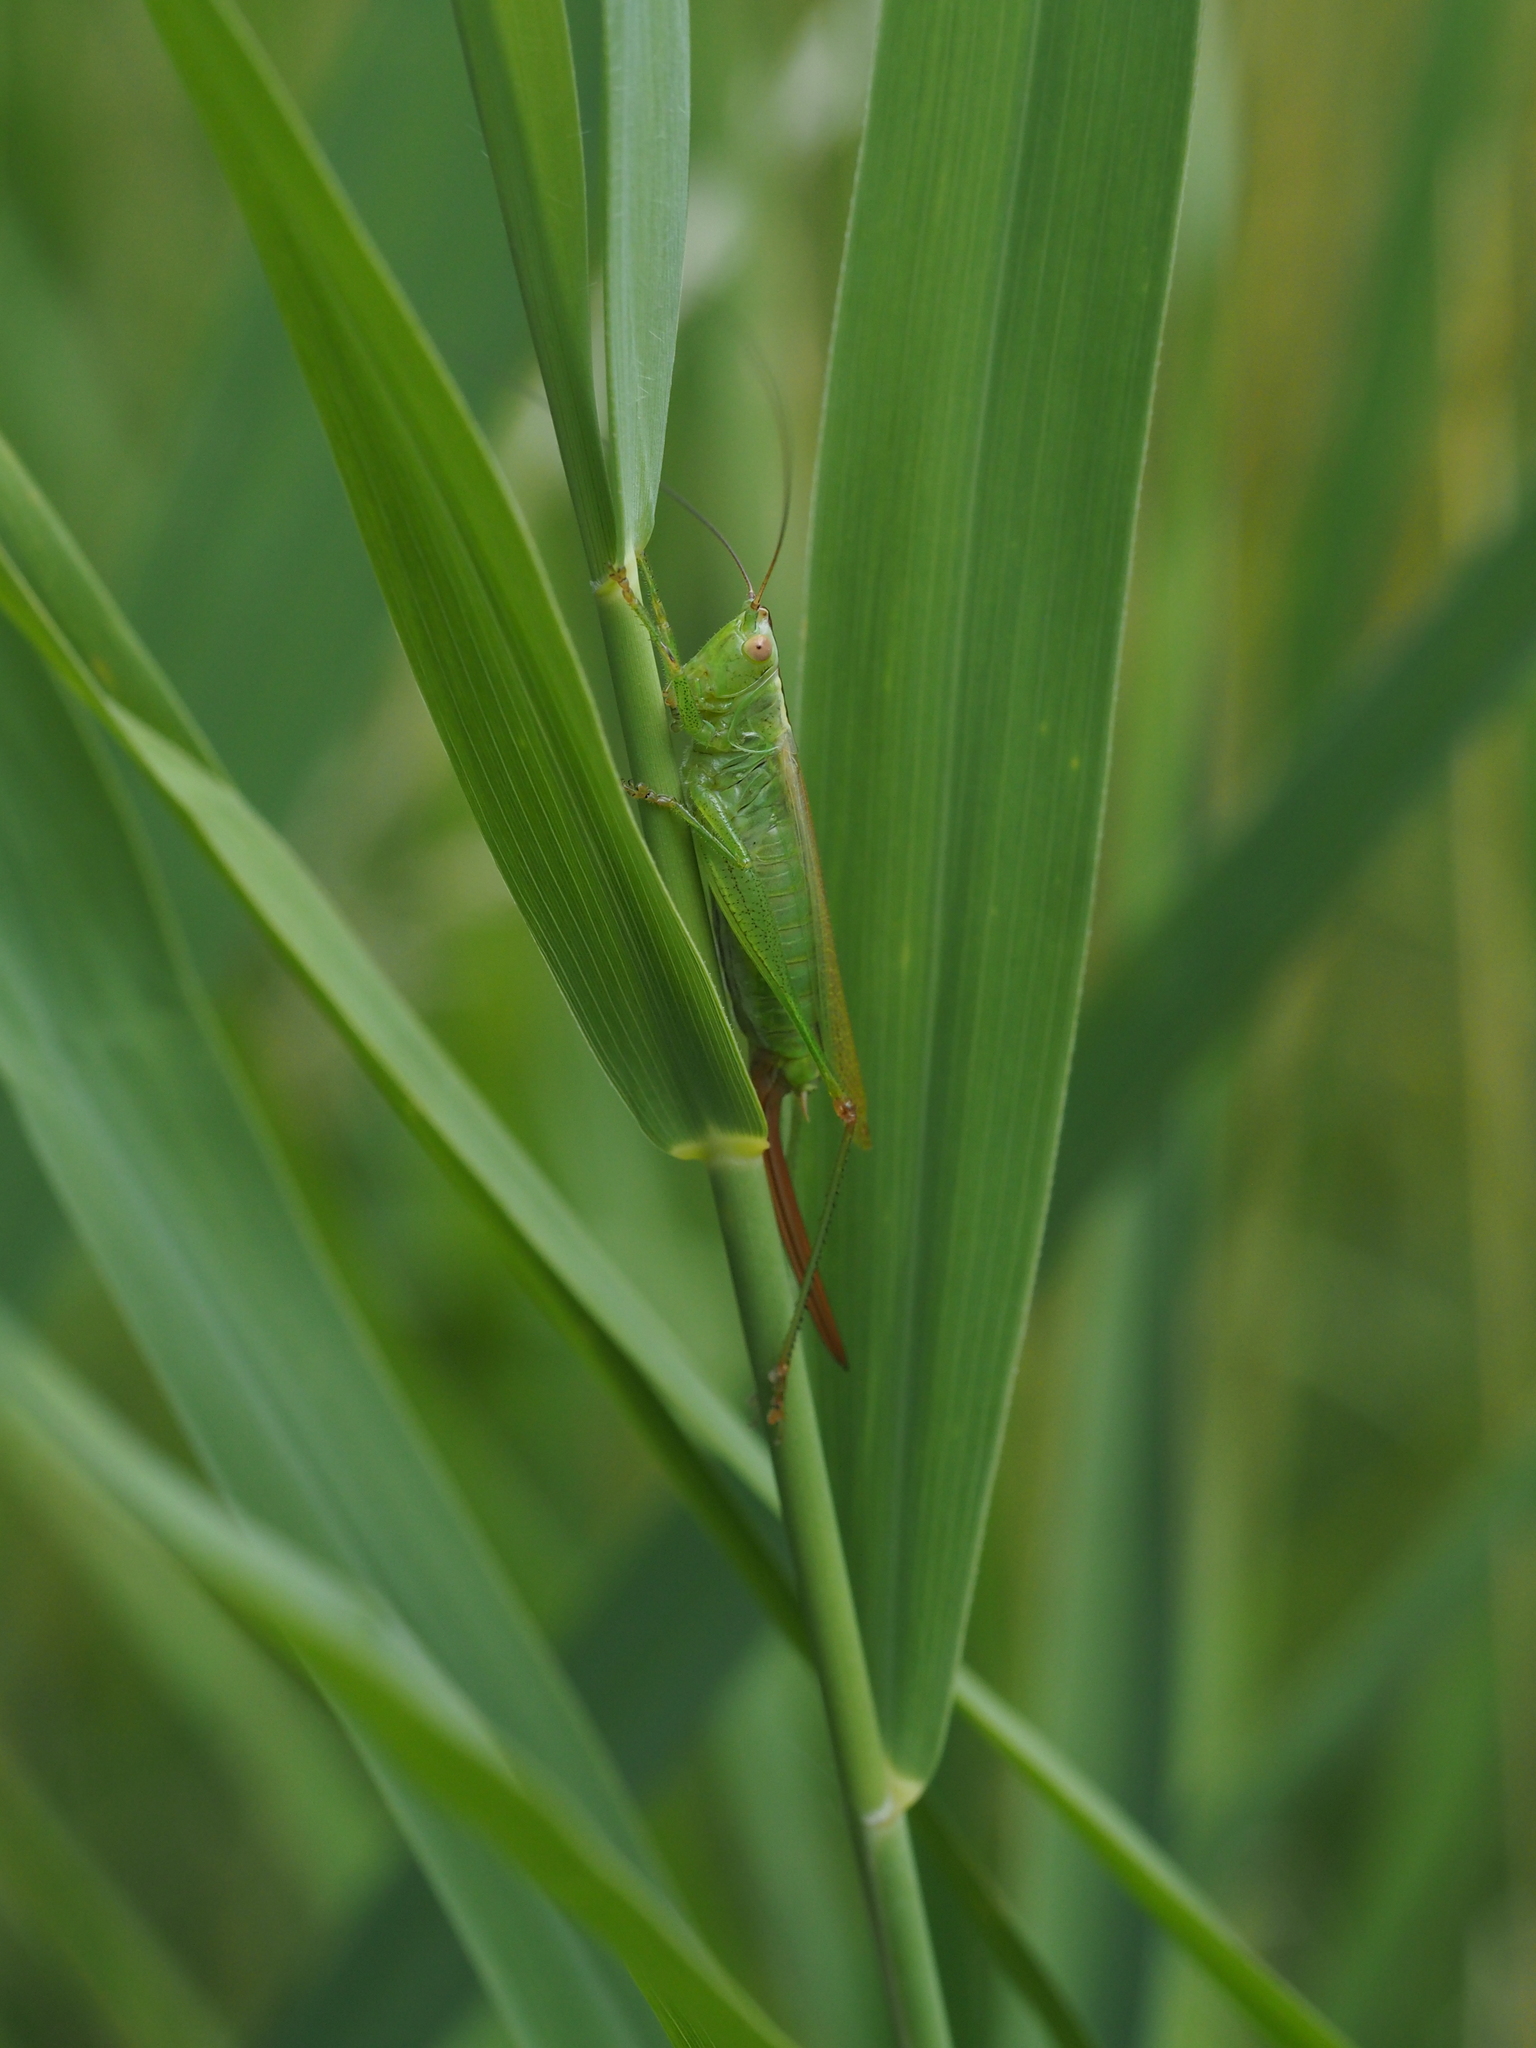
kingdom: Animalia
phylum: Arthropoda
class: Insecta
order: Orthoptera
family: Tettigoniidae
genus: Conocephalus
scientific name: Conocephalus fuscus
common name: Long-winged conehead
